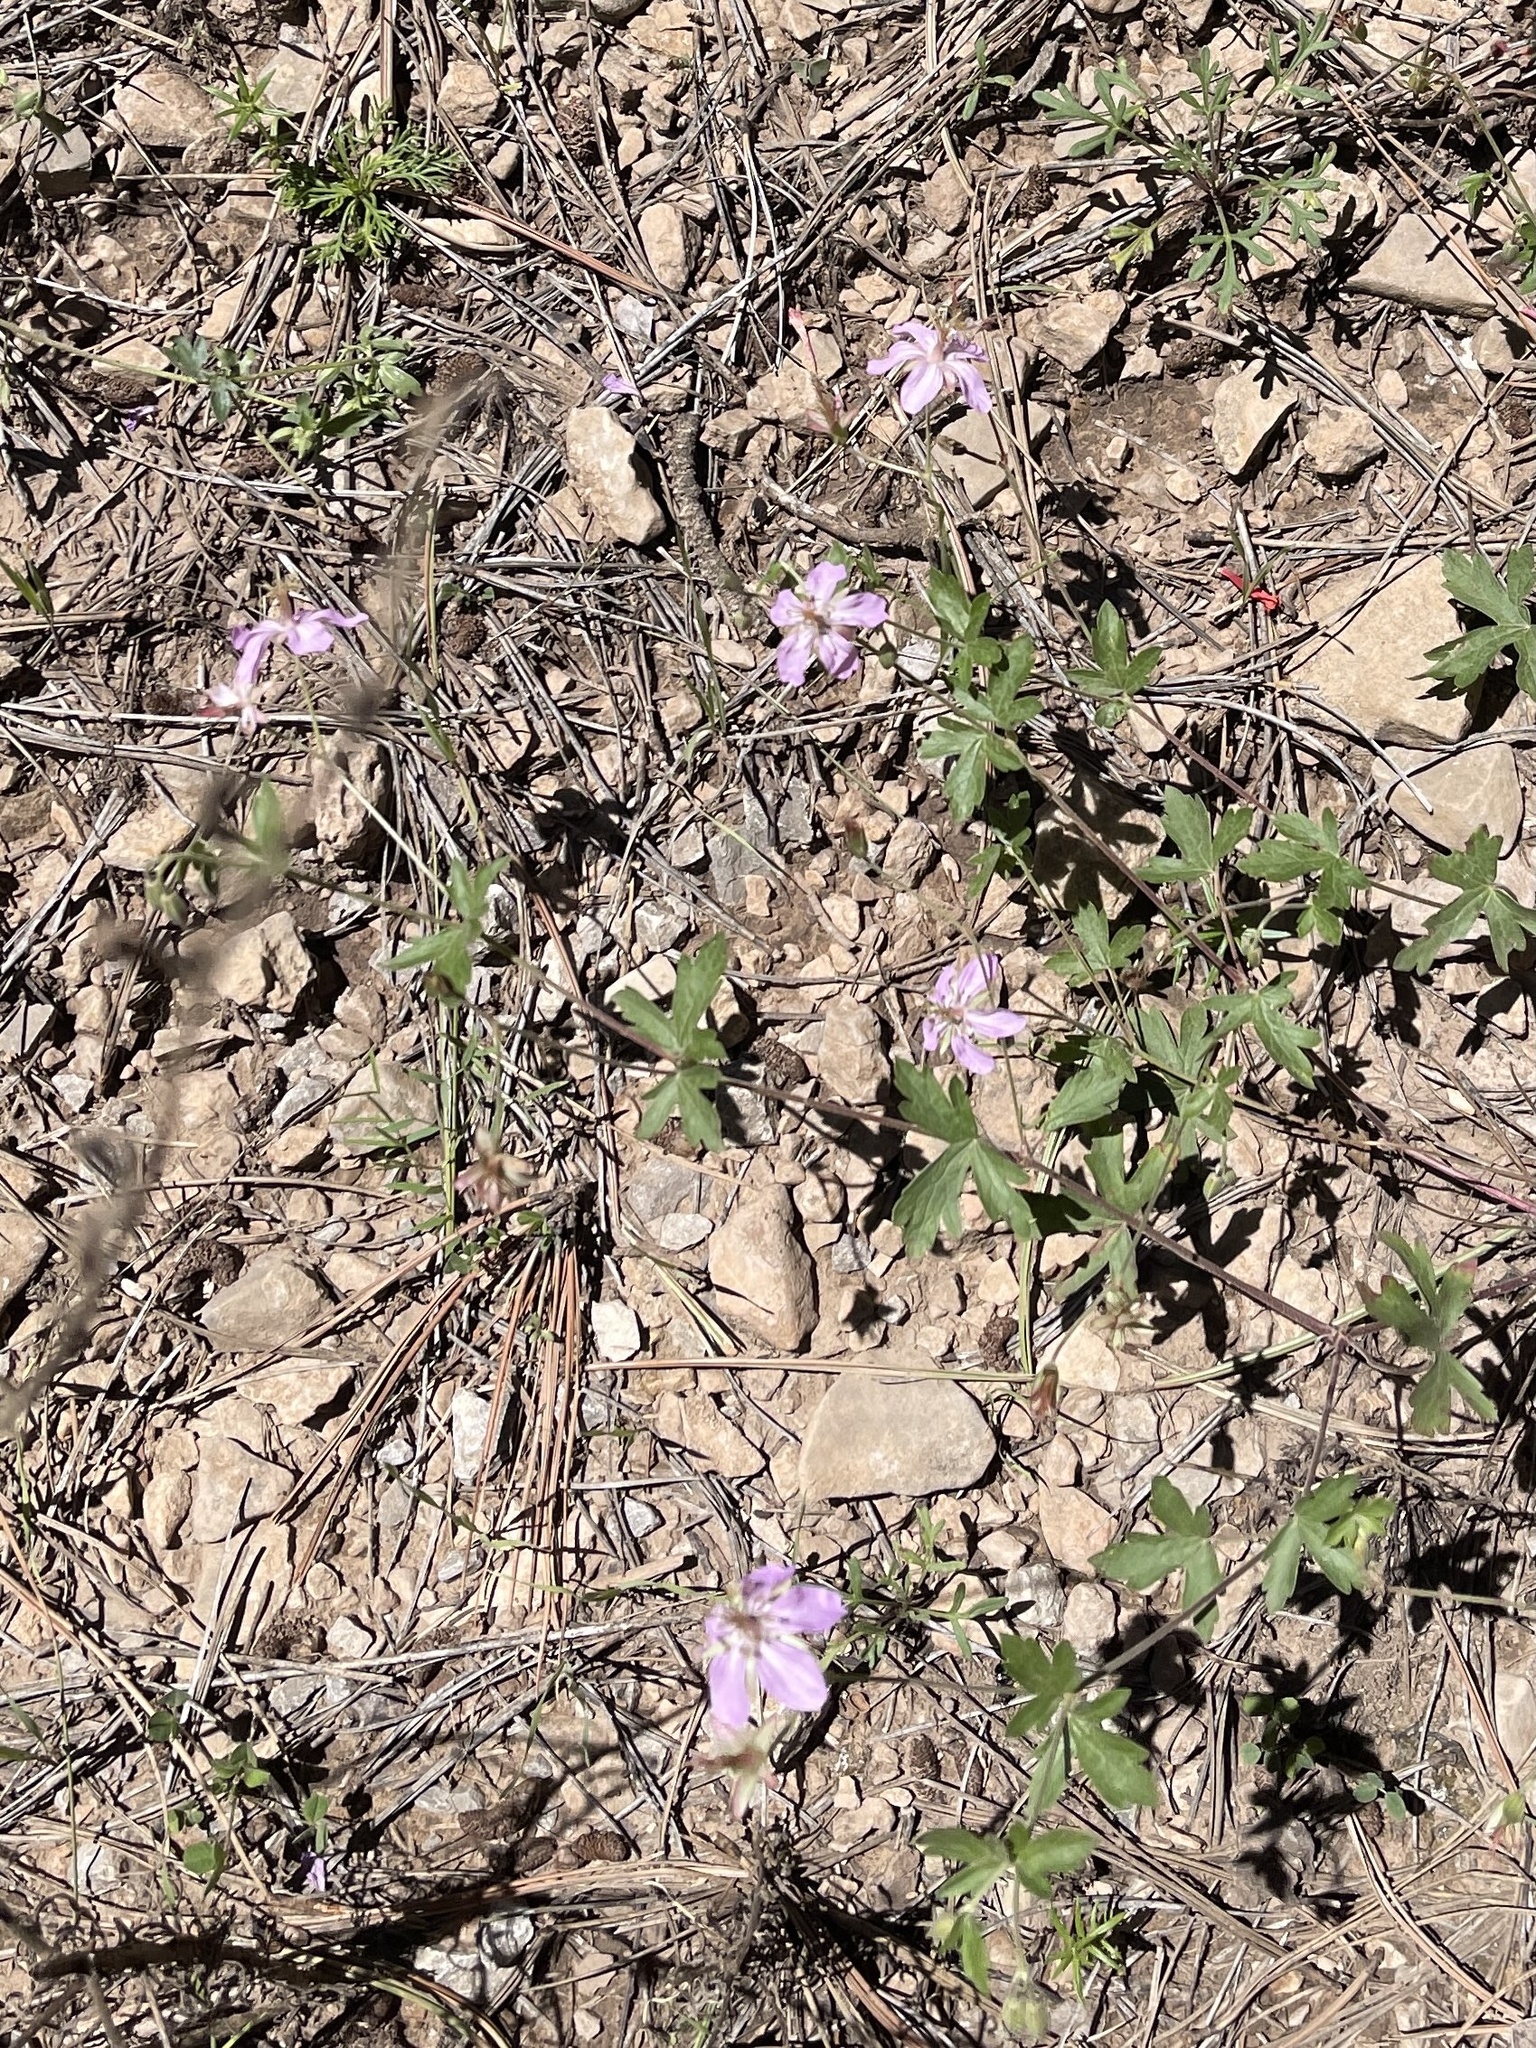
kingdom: Plantae
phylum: Tracheophyta
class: Magnoliopsida
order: Geraniales
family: Geraniaceae
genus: Geranium
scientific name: Geranium caespitosum
